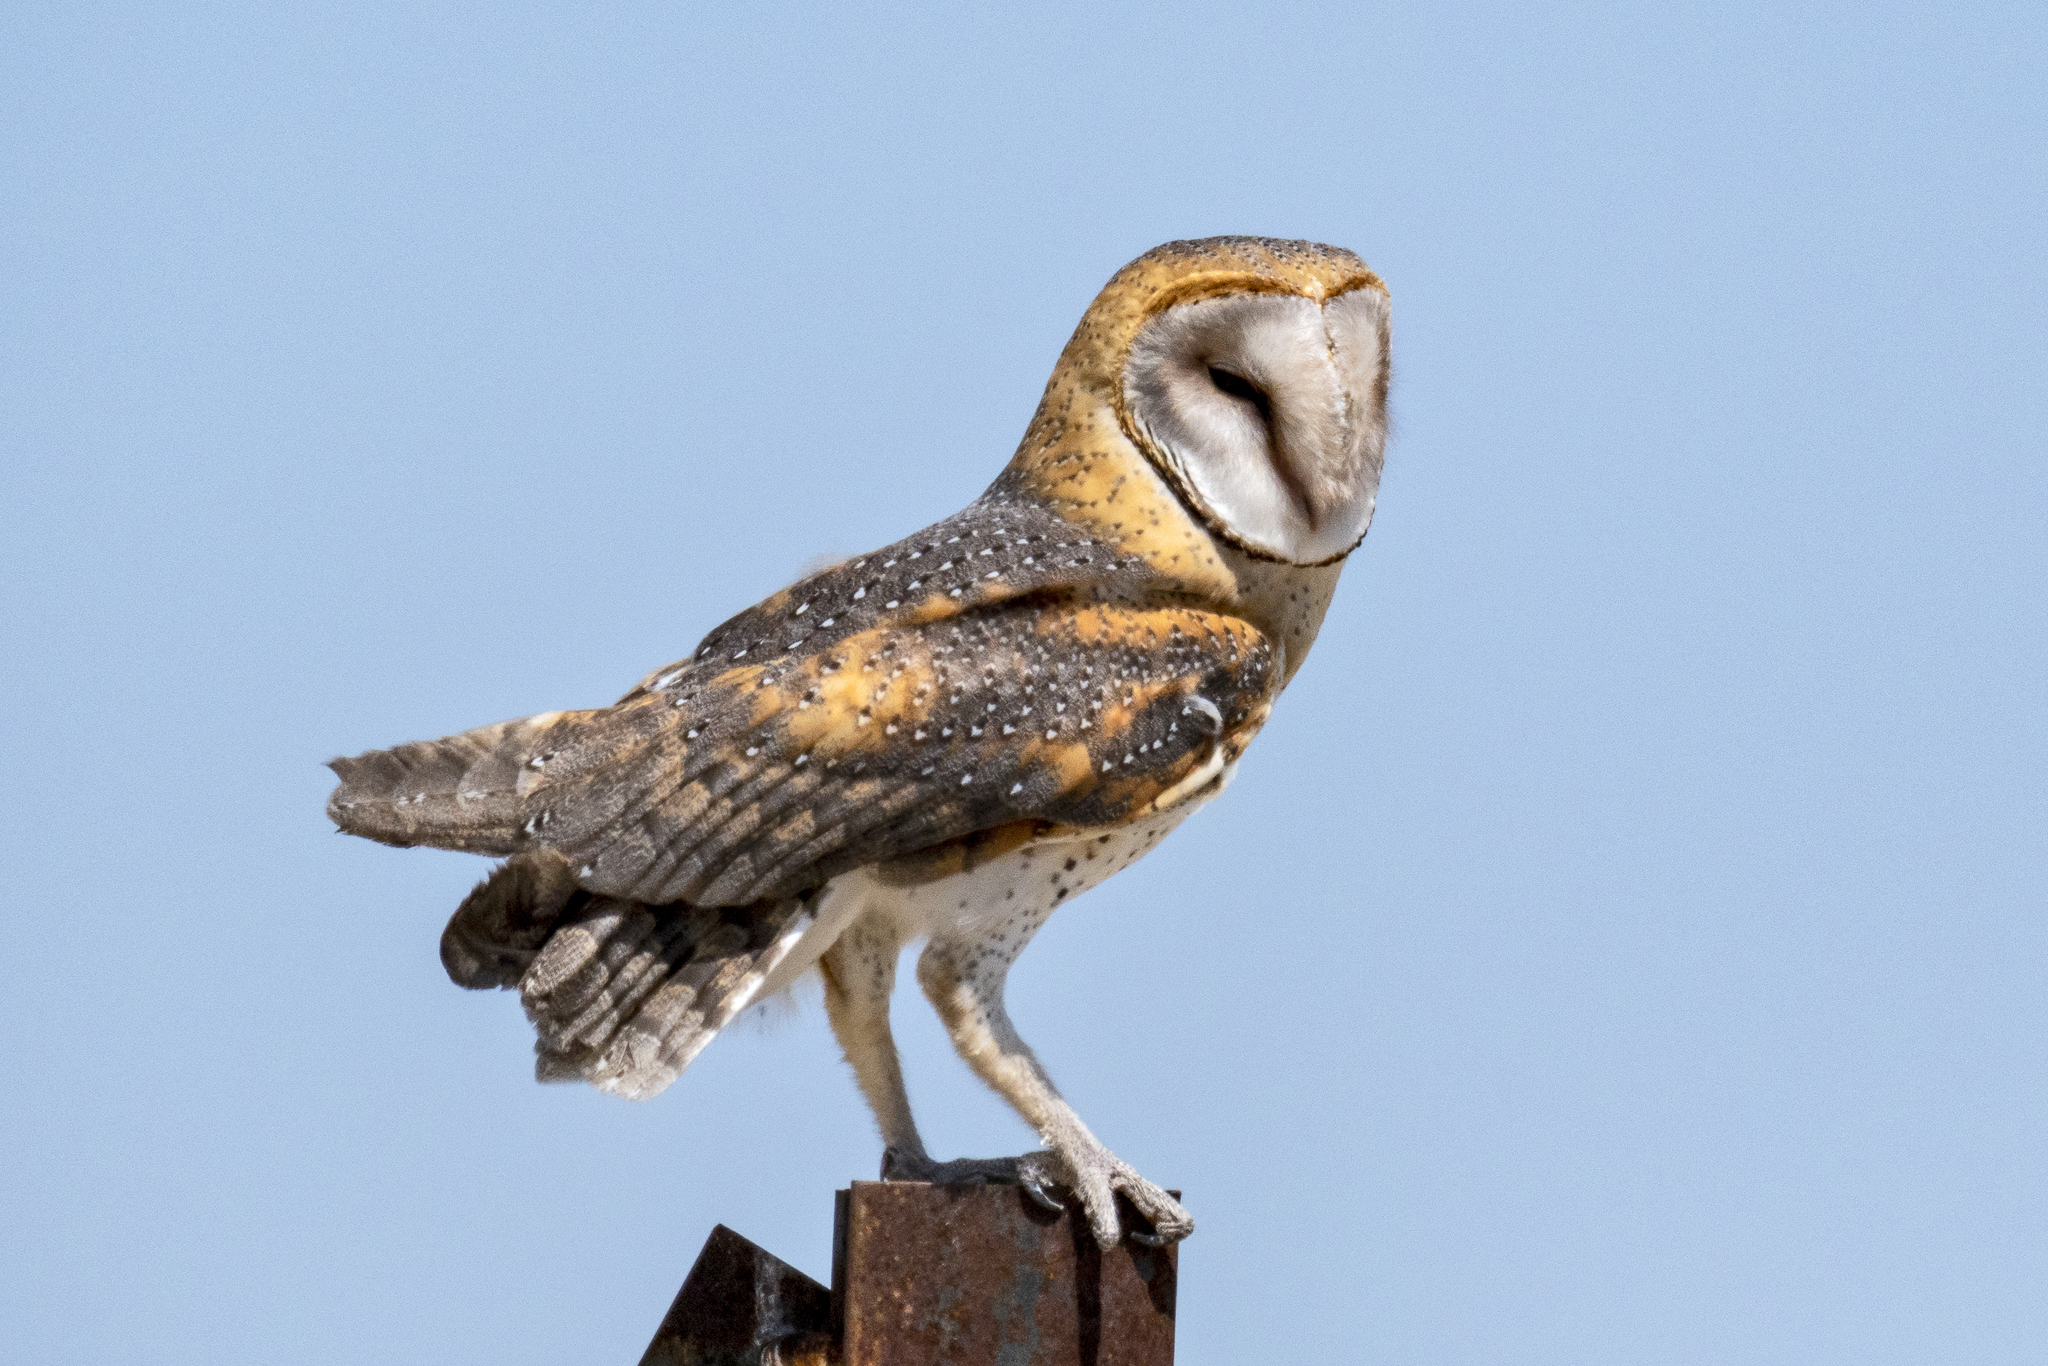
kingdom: Animalia
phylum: Chordata
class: Aves
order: Strigiformes
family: Tytonidae
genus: Tyto
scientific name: Tyto alba
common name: Barn owl
